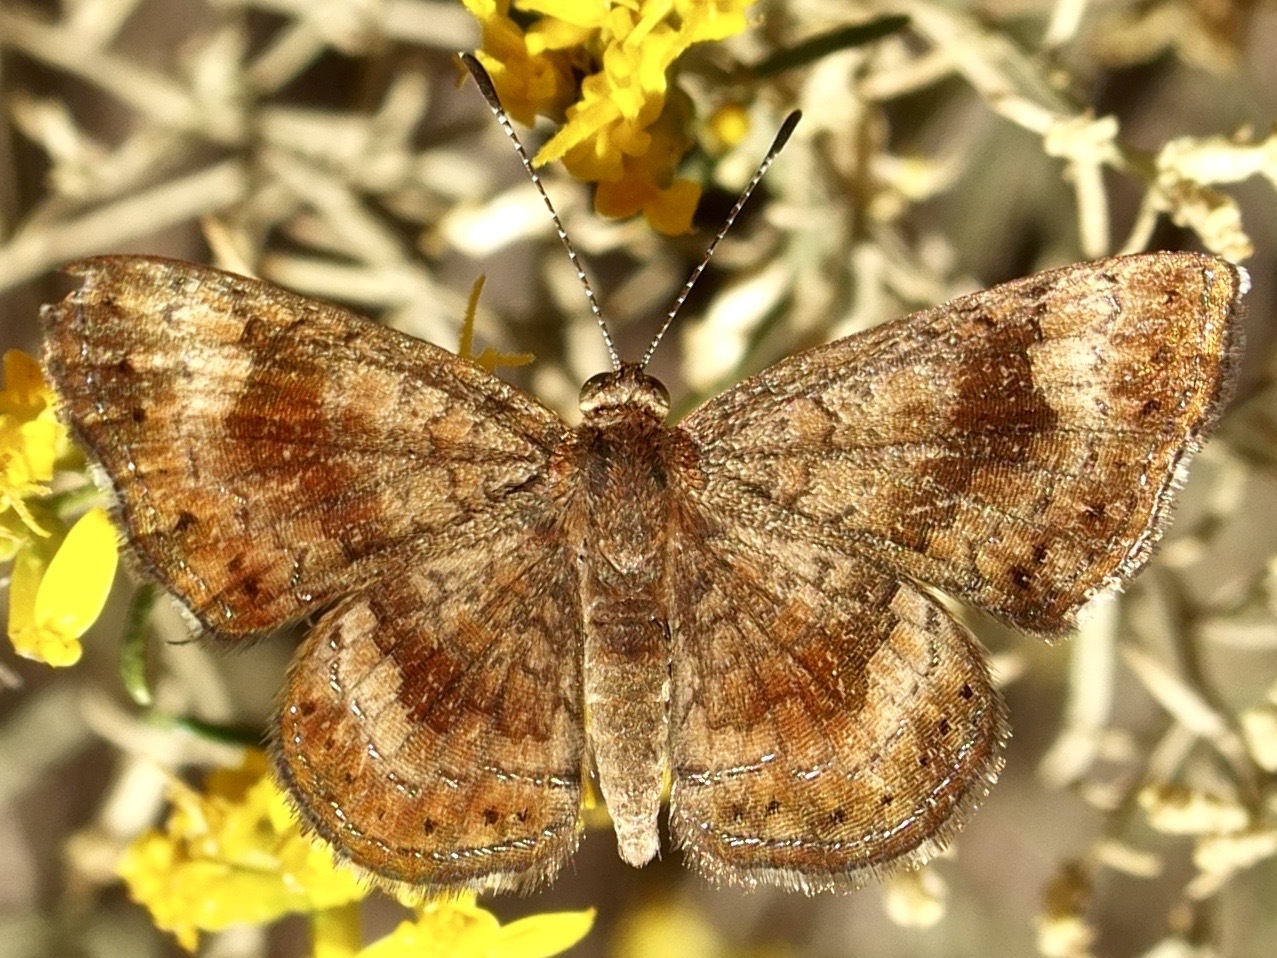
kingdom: Animalia
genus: Calephelis
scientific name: Calephelis nemesis
